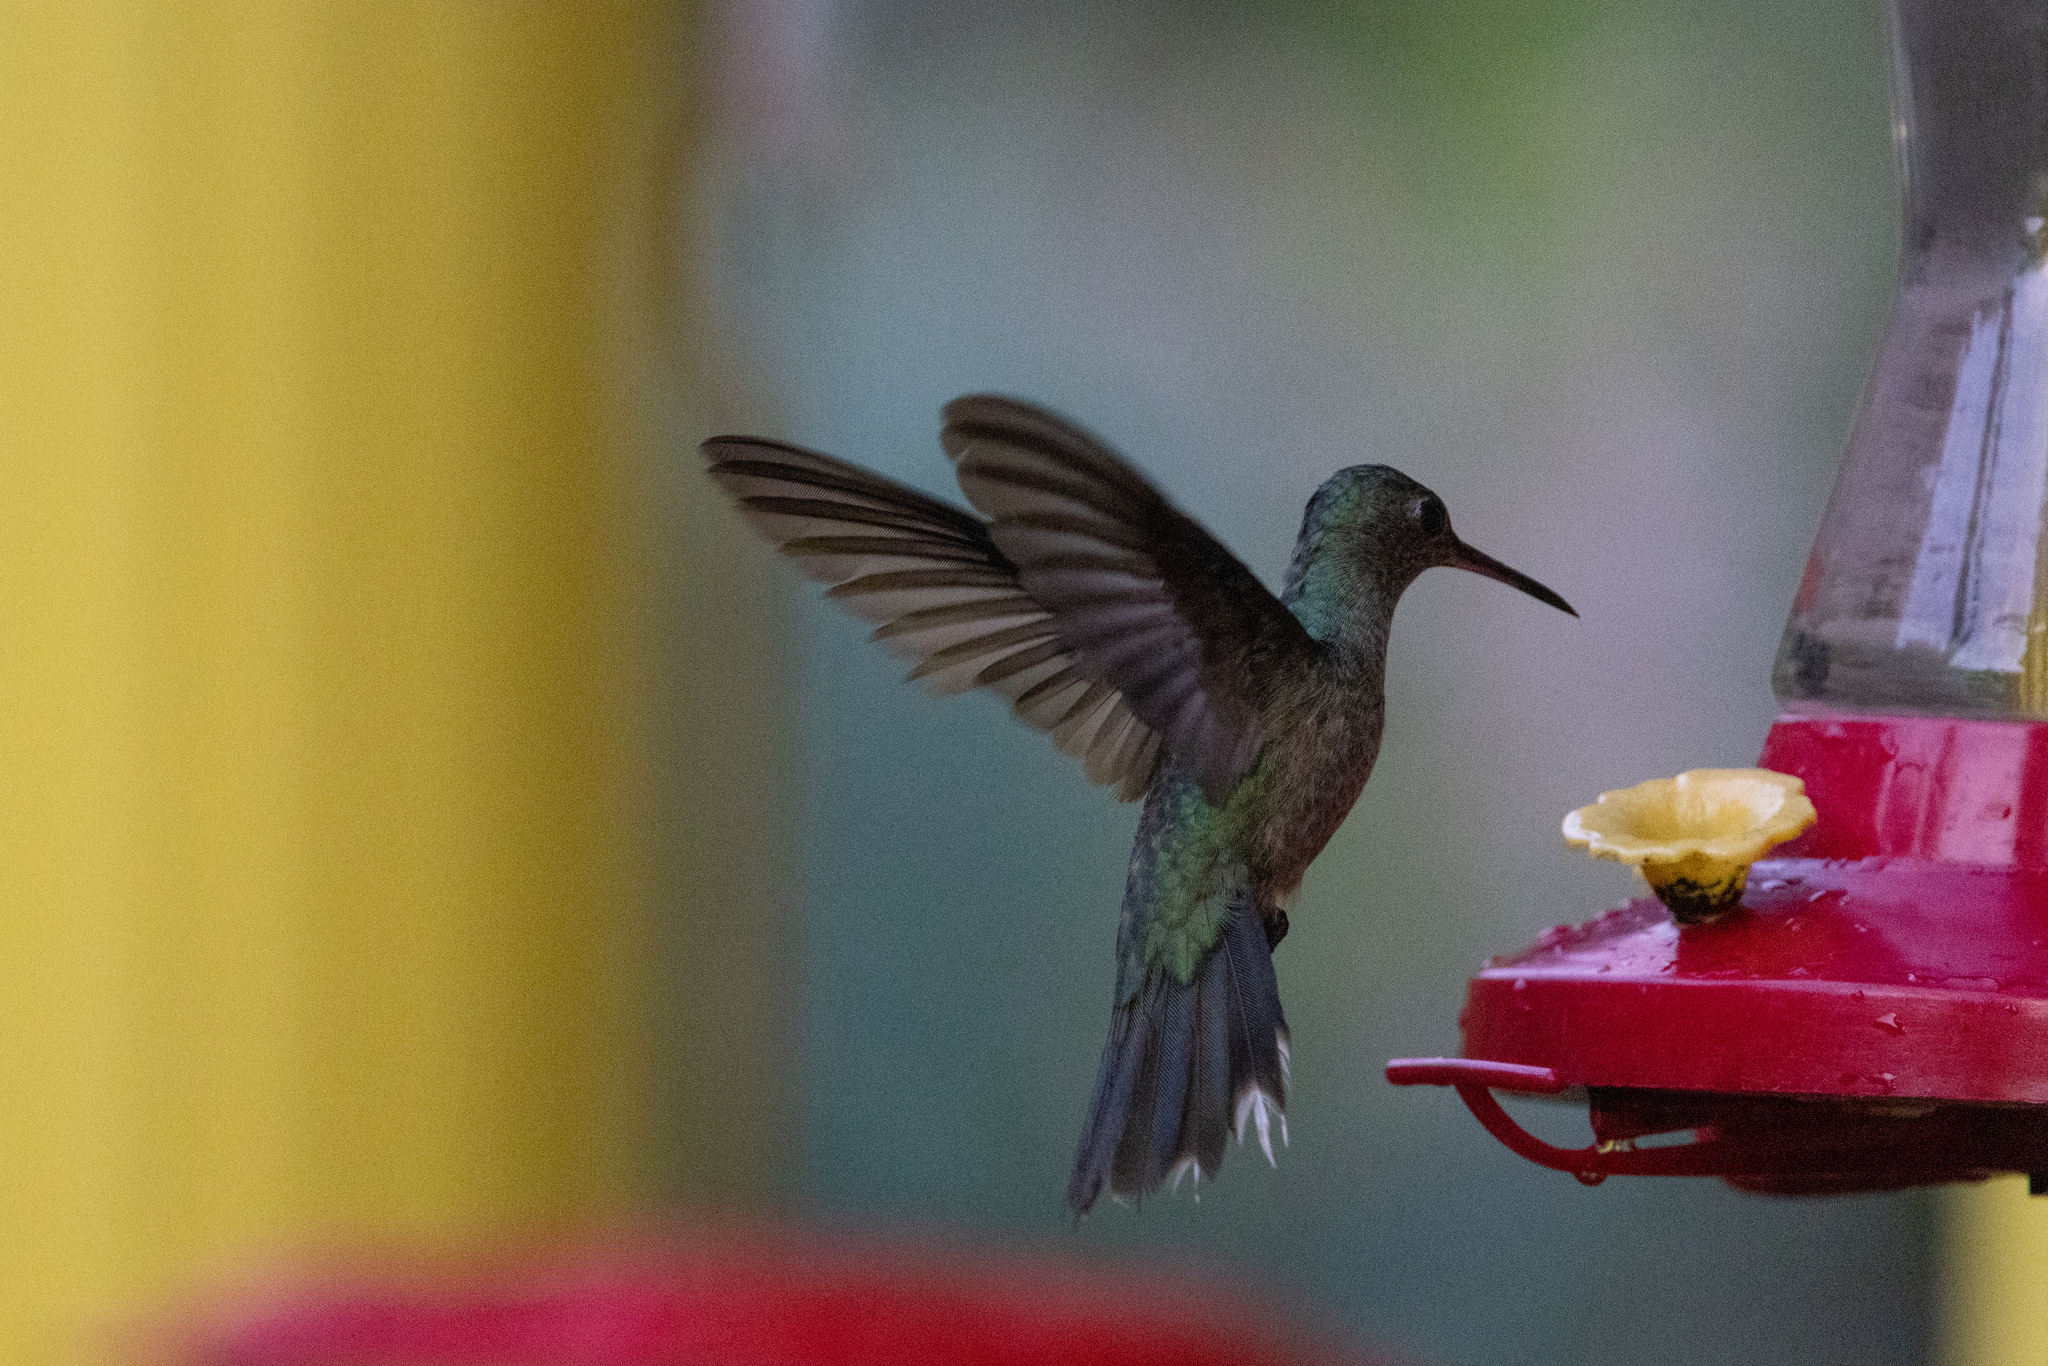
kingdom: Animalia
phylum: Chordata
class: Aves
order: Apodiformes
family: Trochilidae
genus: Phaeochroa
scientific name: Phaeochroa cuvierii
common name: Scaly-breasted hummingbird
